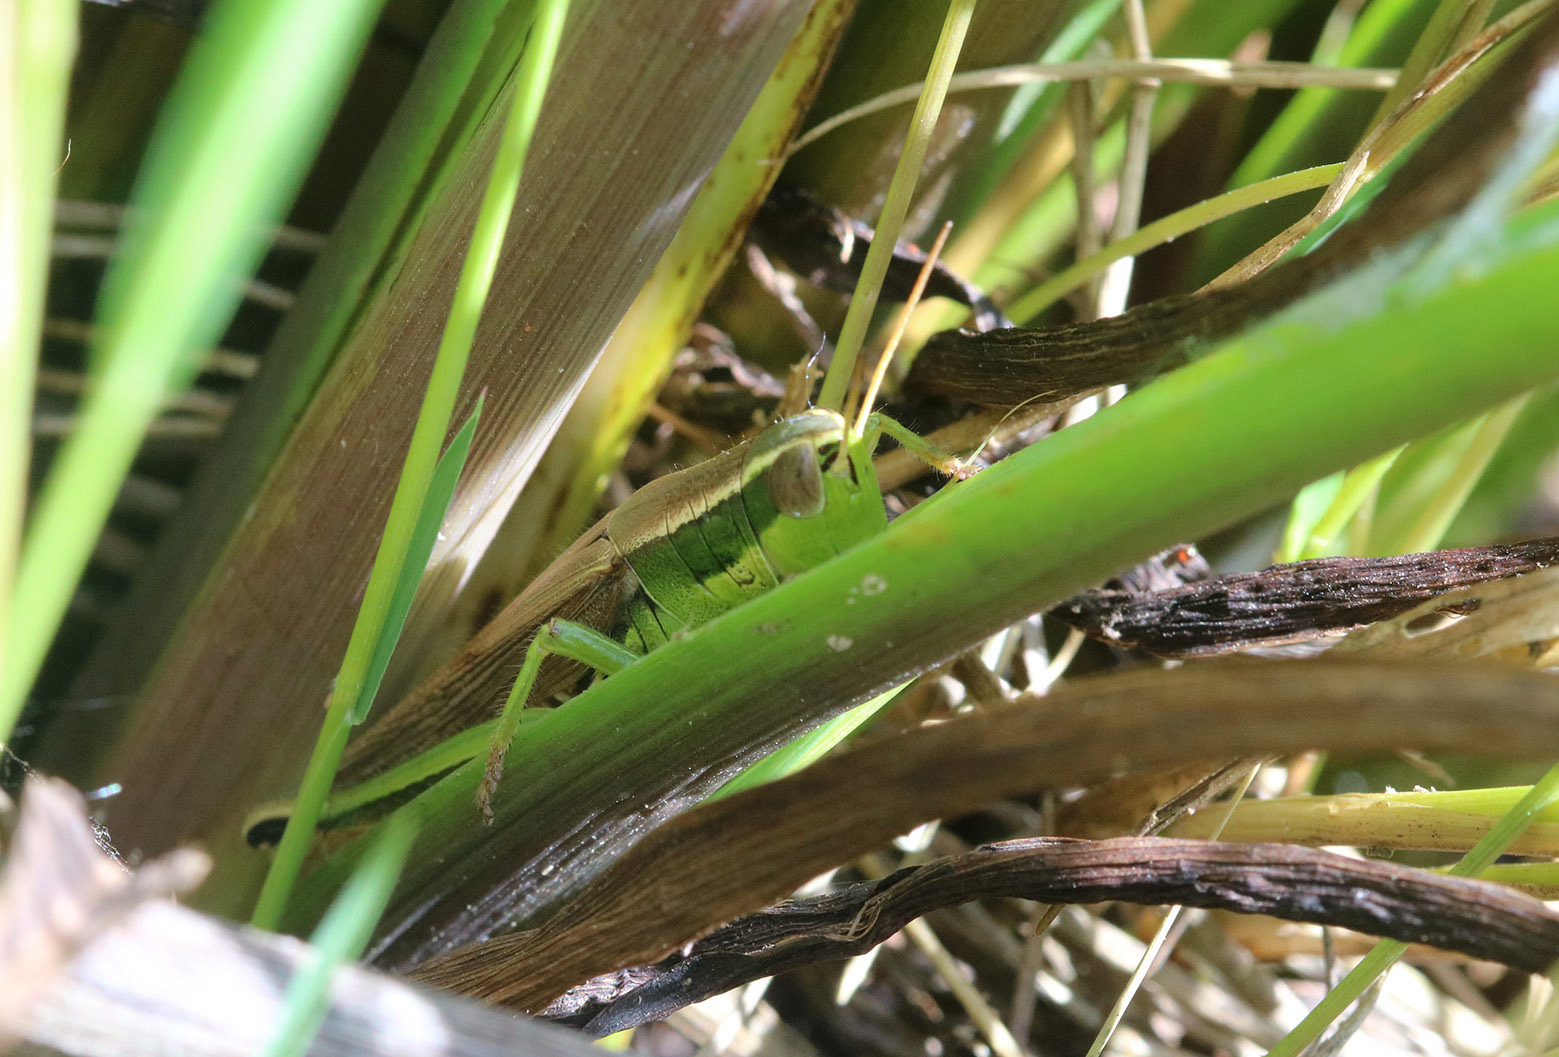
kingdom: Animalia
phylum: Arthropoda
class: Insecta
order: Orthoptera
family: Acrididae
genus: Scotussa
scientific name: Scotussa cliens
